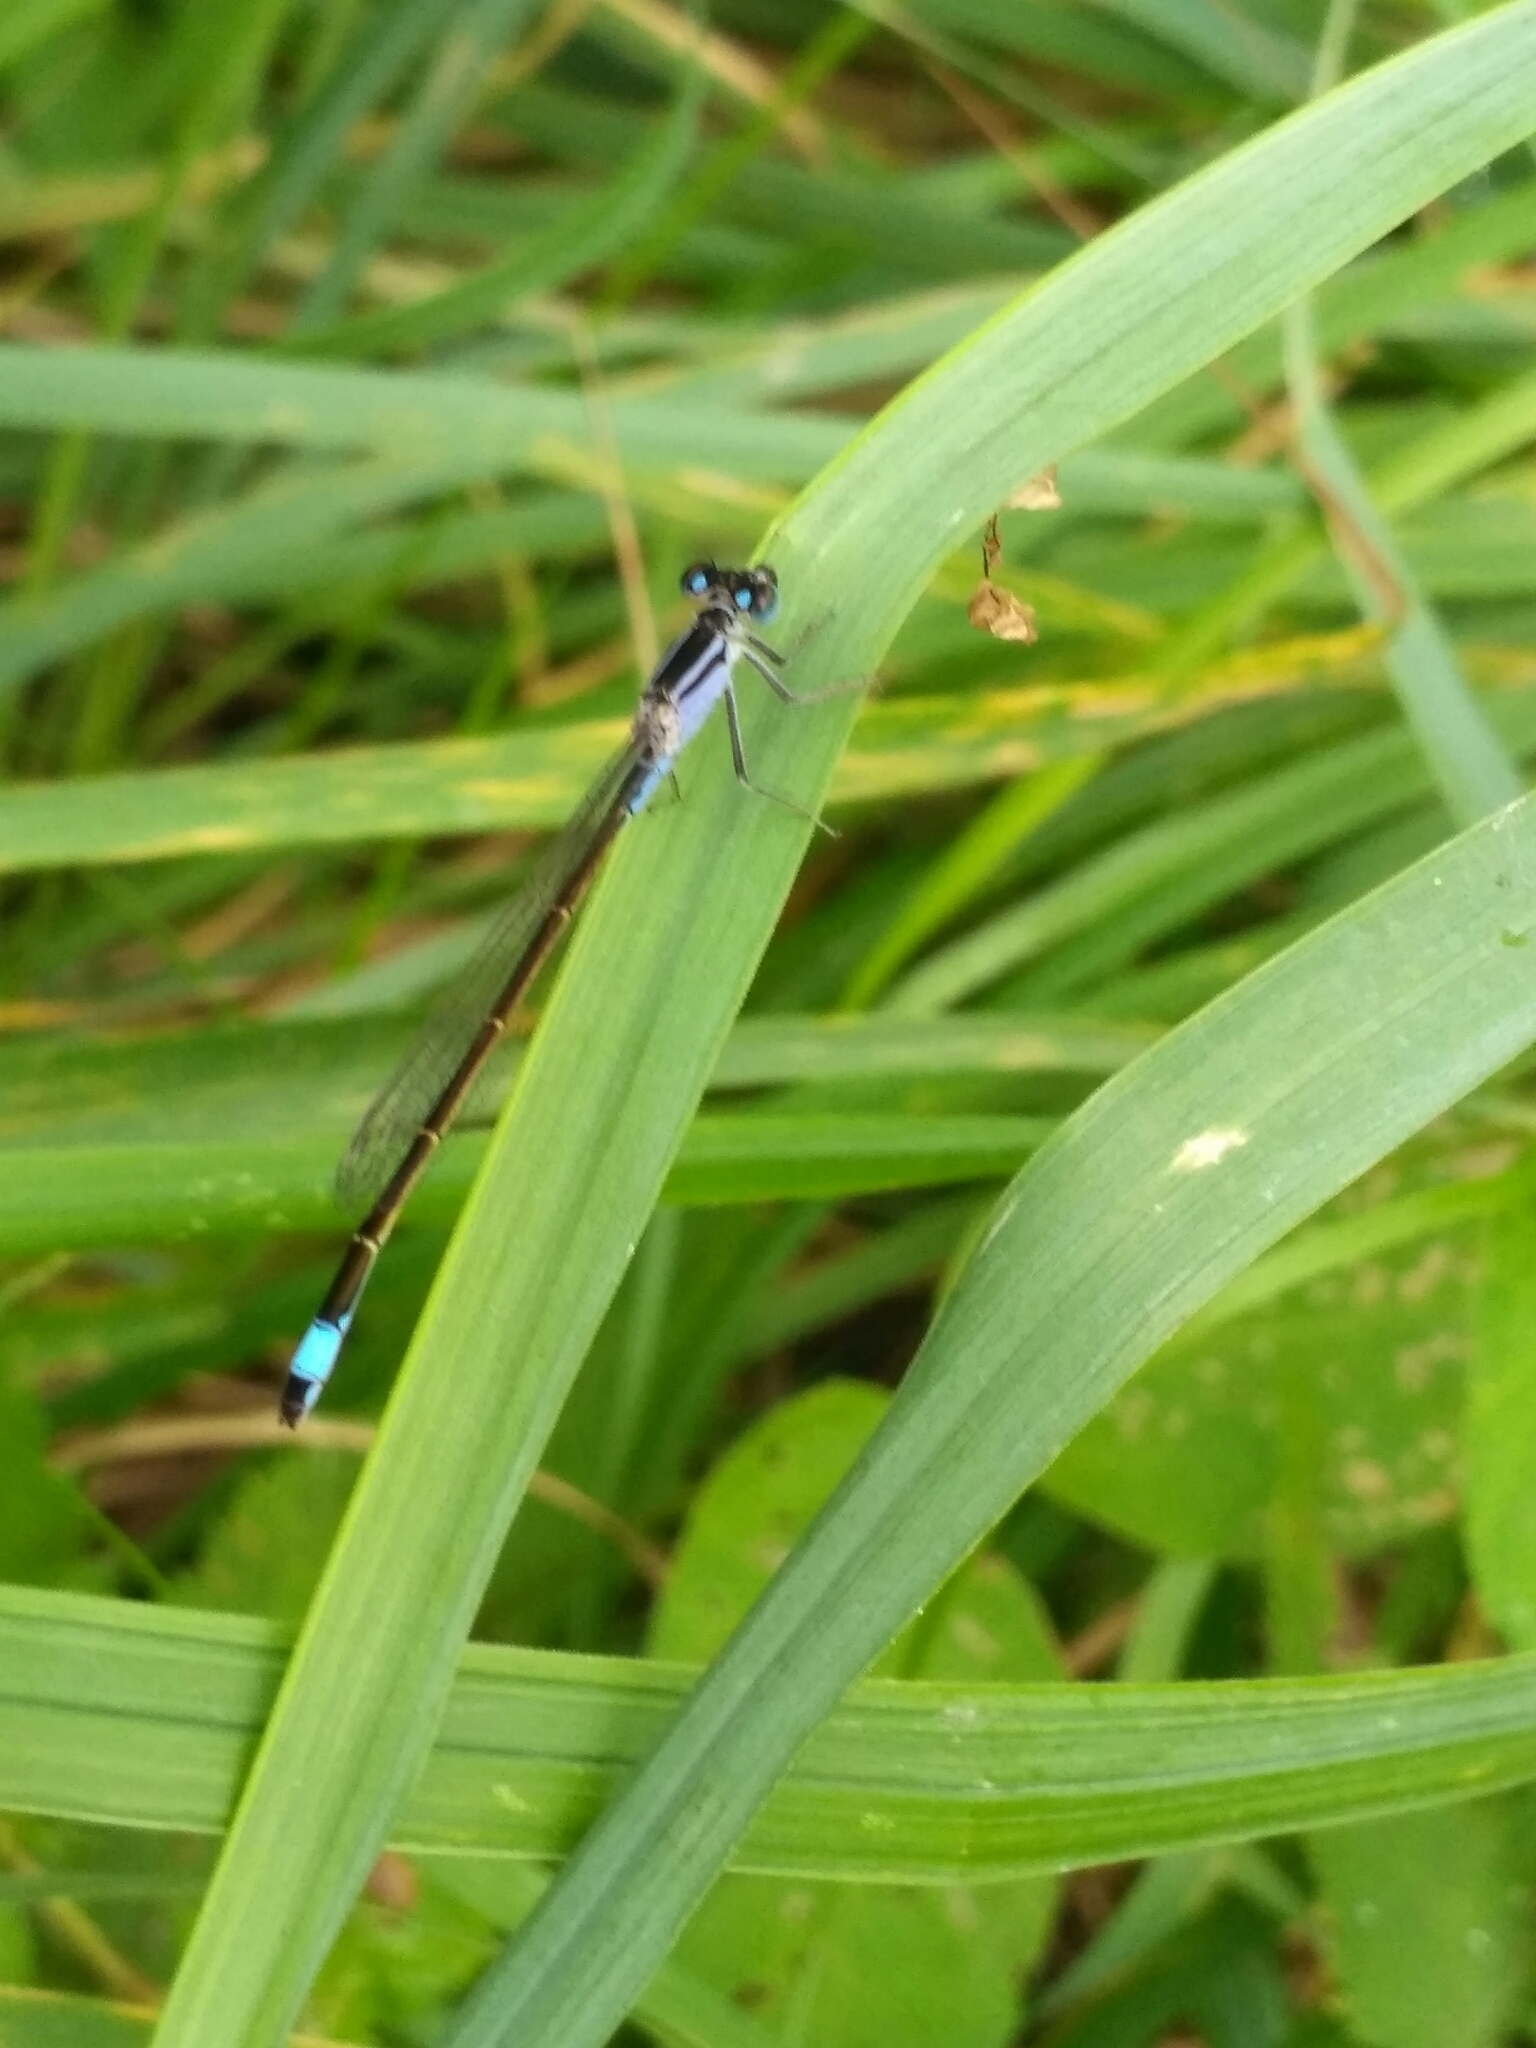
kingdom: Animalia
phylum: Arthropoda
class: Insecta
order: Odonata
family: Coenagrionidae
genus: Ischnura
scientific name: Ischnura elegans
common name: Blue-tailed damselfly
